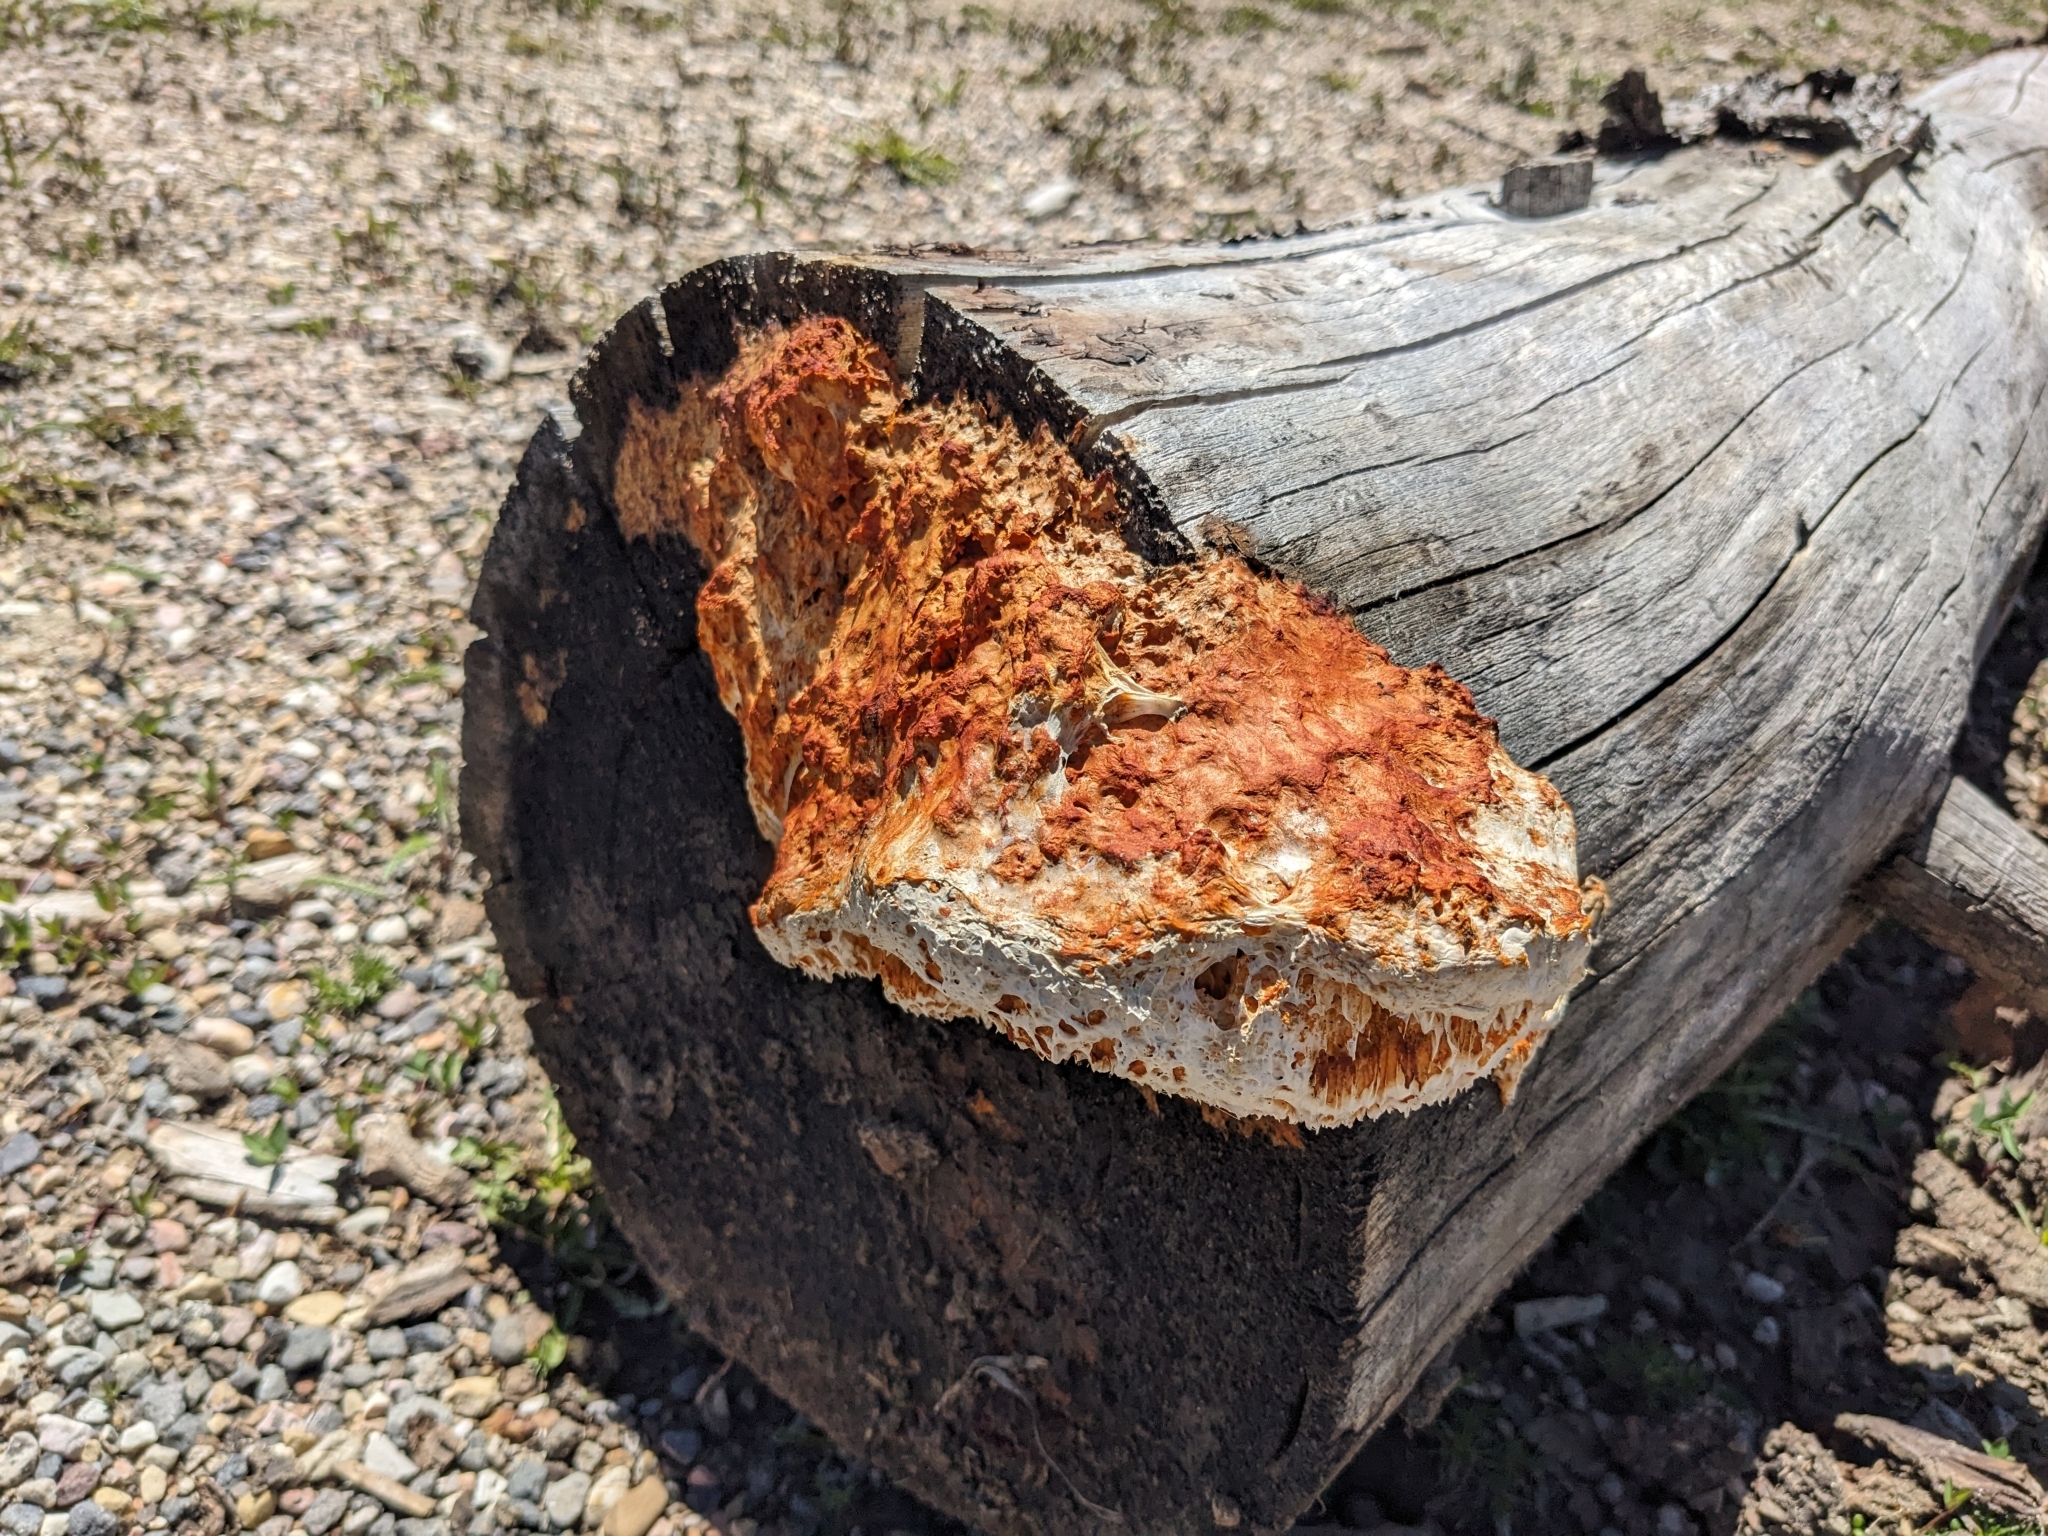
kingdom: Fungi
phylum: Basidiomycota
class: Agaricomycetes
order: Polyporales
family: Pycnoporellaceae
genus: Pycnoporellus
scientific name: Pycnoporellus alboluteus
